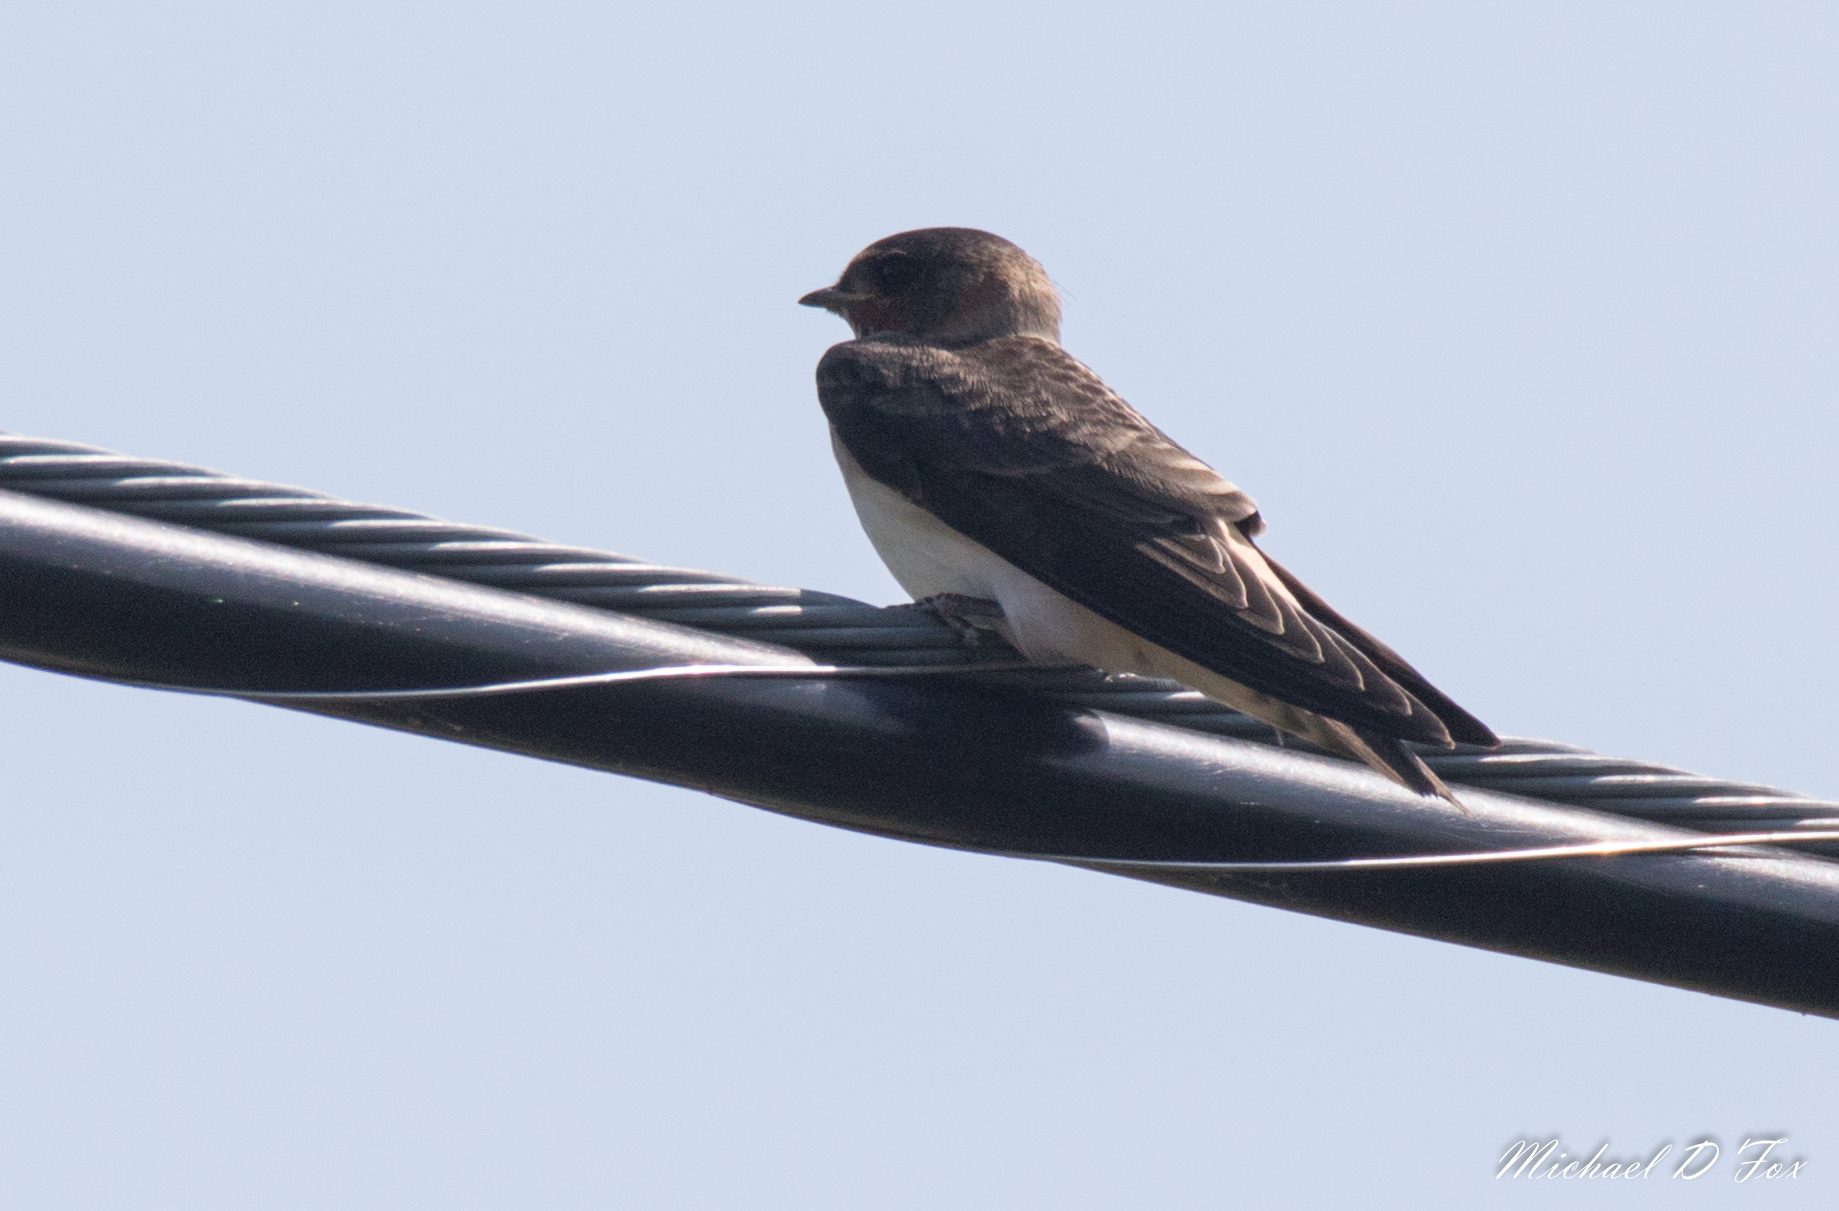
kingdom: Animalia
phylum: Chordata
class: Aves
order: Passeriformes
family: Hirundinidae
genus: Stelgidopteryx
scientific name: Stelgidopteryx serripennis
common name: Northern rough-winged swallow
